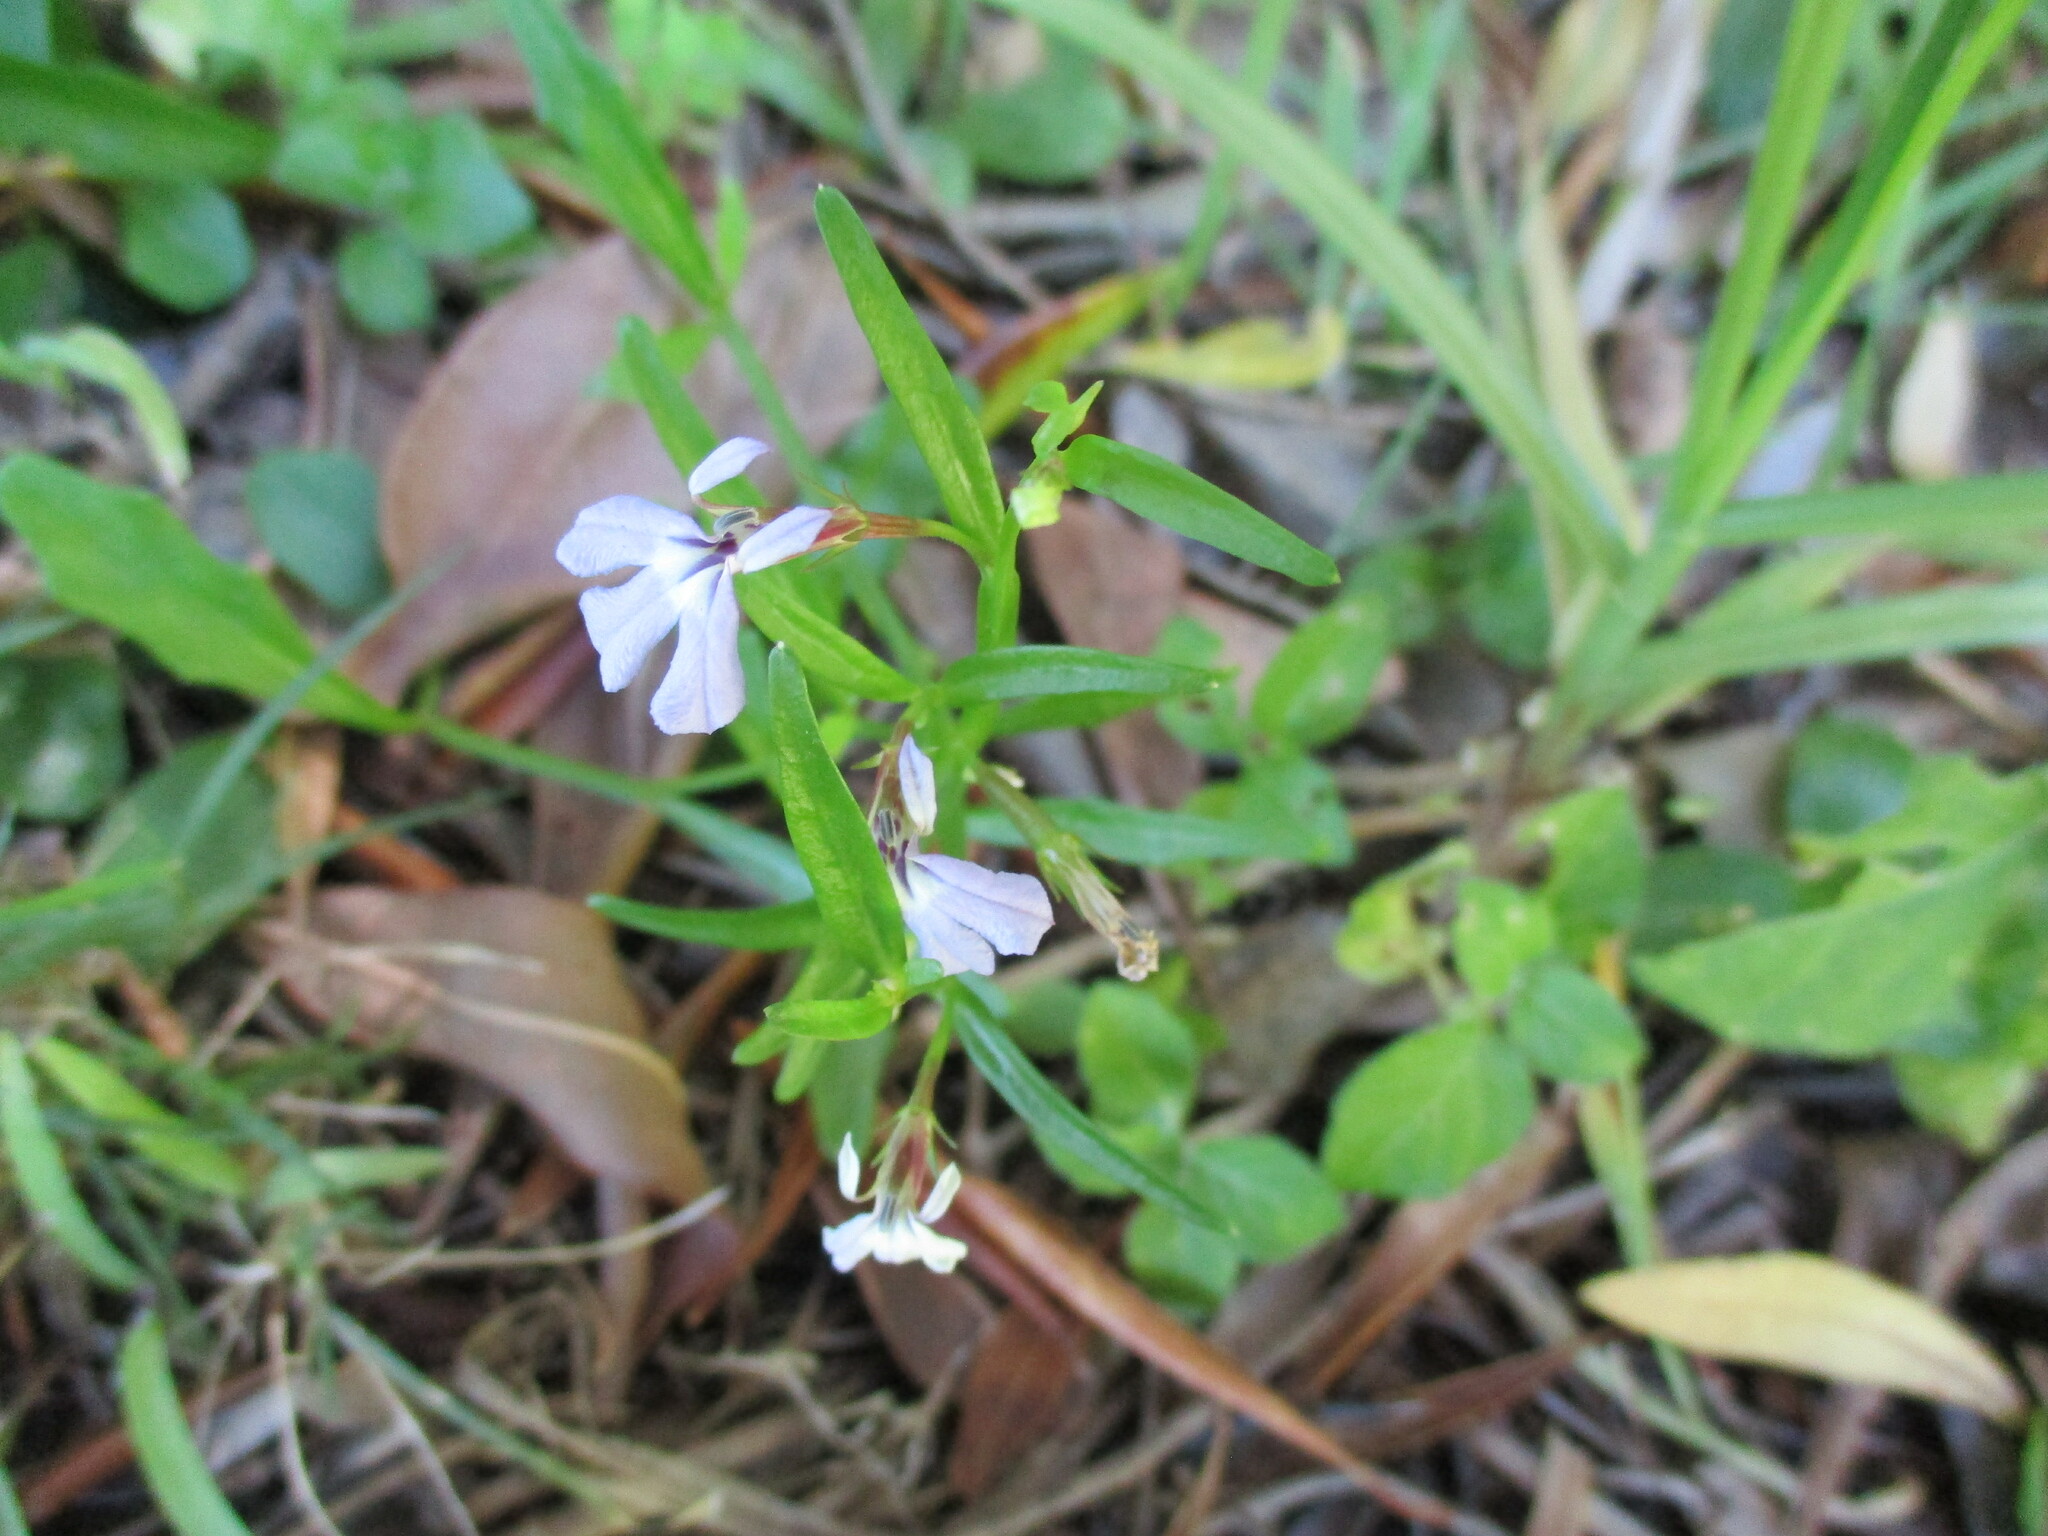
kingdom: Plantae
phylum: Tracheophyta
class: Magnoliopsida
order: Asterales
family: Campanulaceae
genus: Lobelia
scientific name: Lobelia anceps
